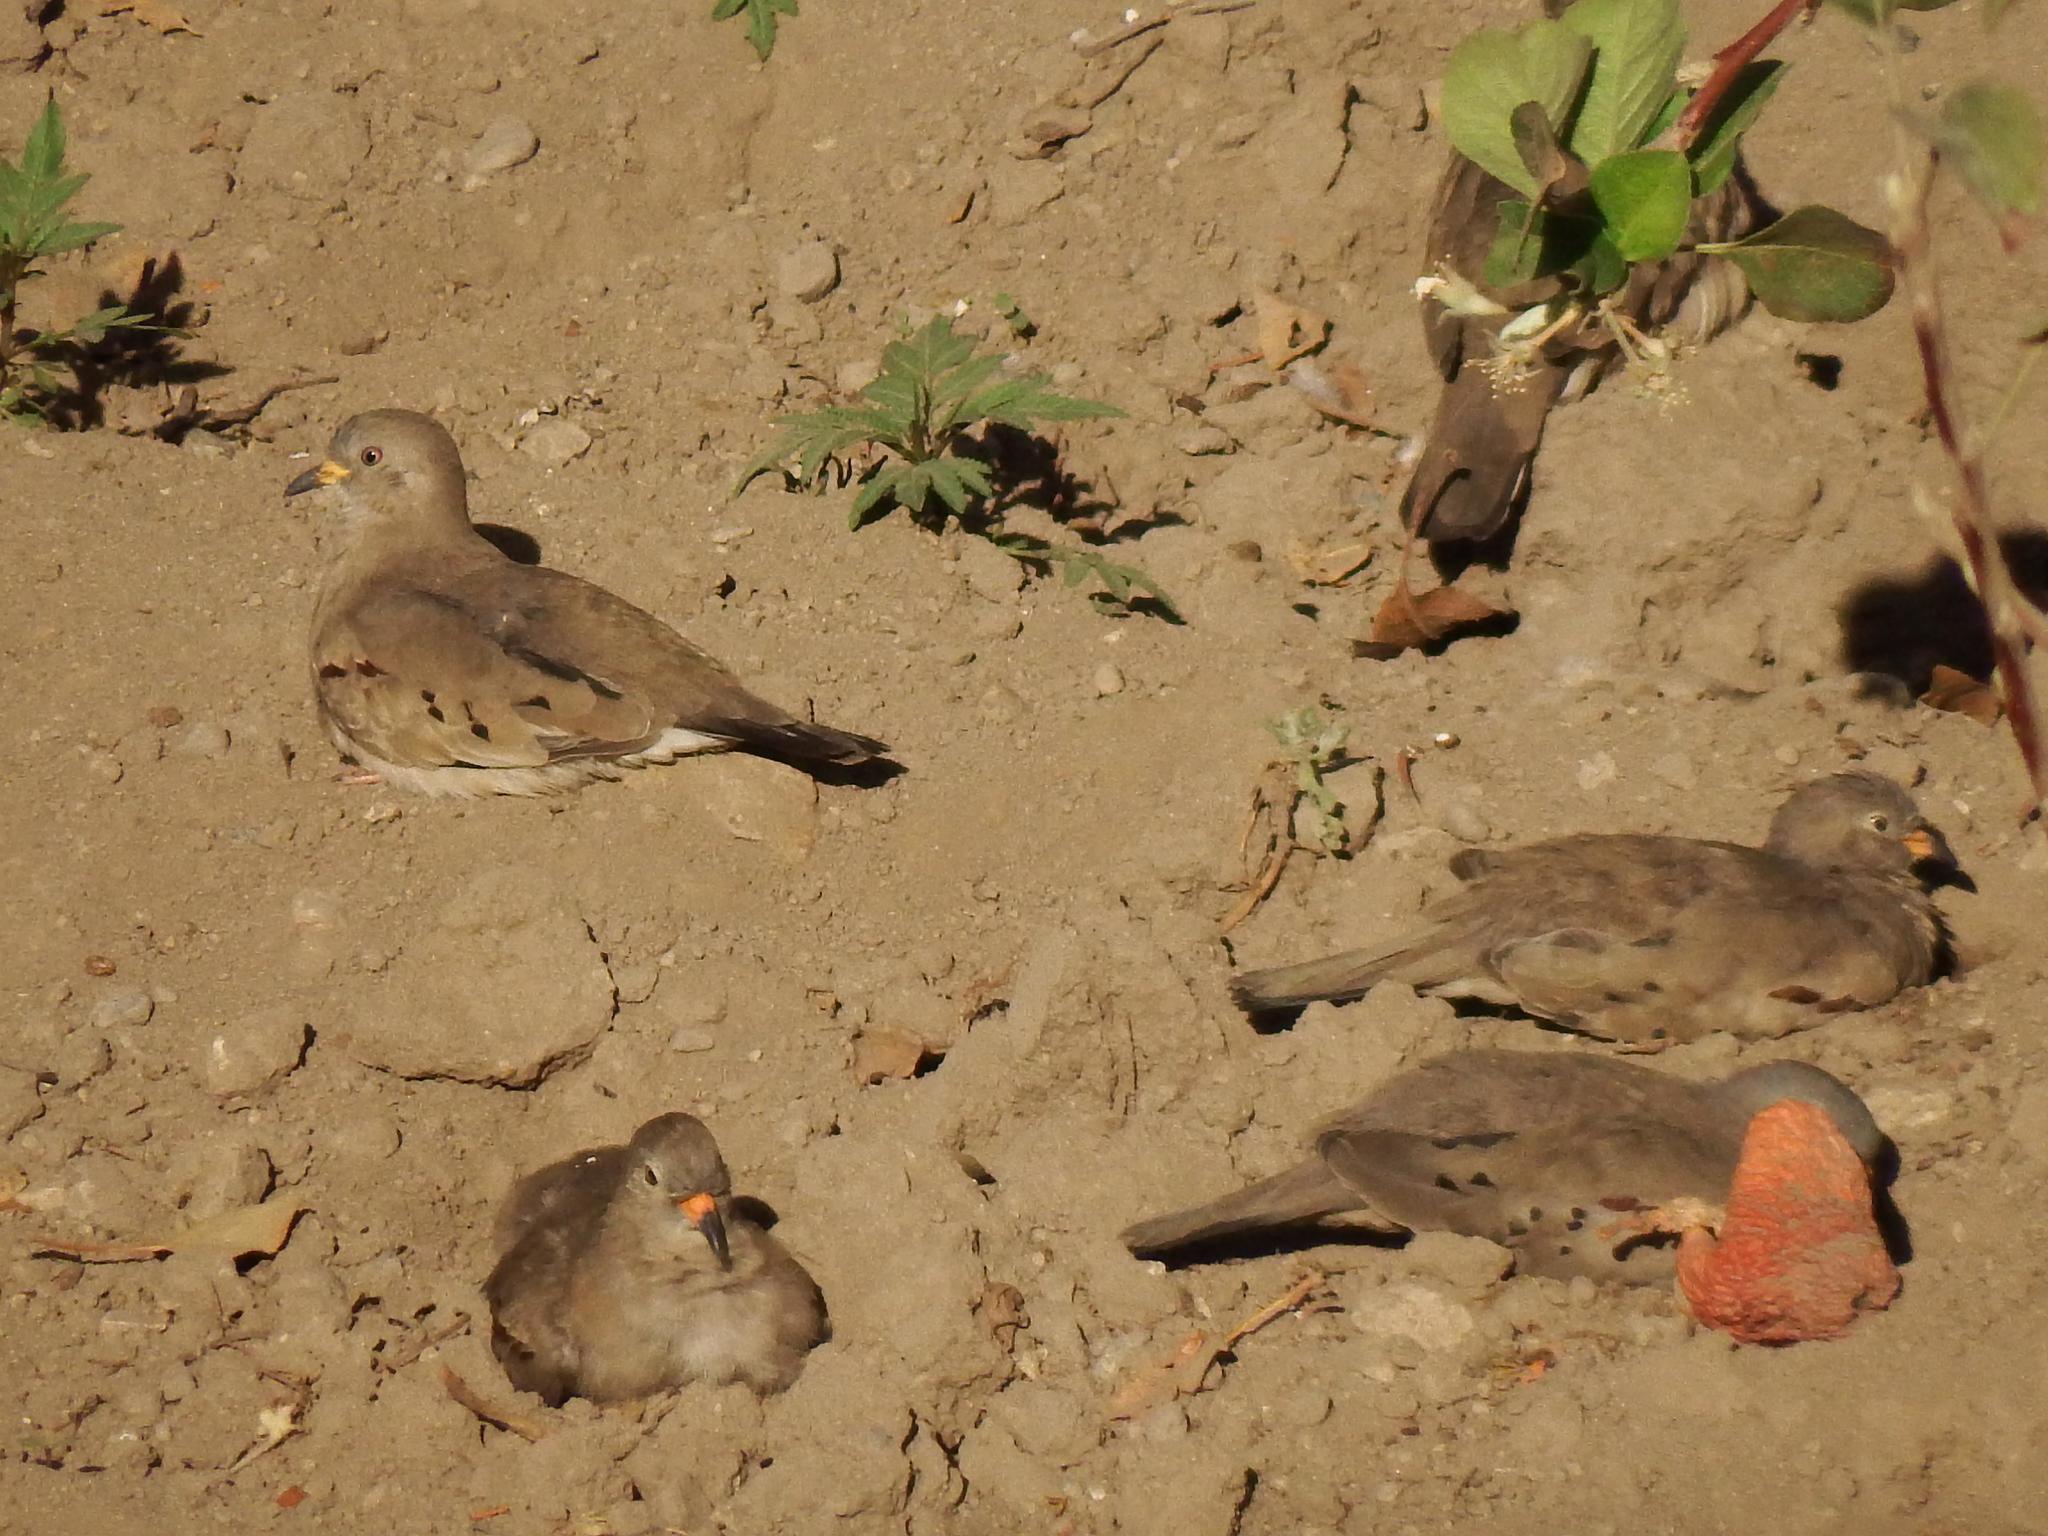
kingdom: Animalia
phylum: Chordata
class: Aves
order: Columbiformes
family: Columbidae
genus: Columbina
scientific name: Columbina cruziana
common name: Croaking ground dove
